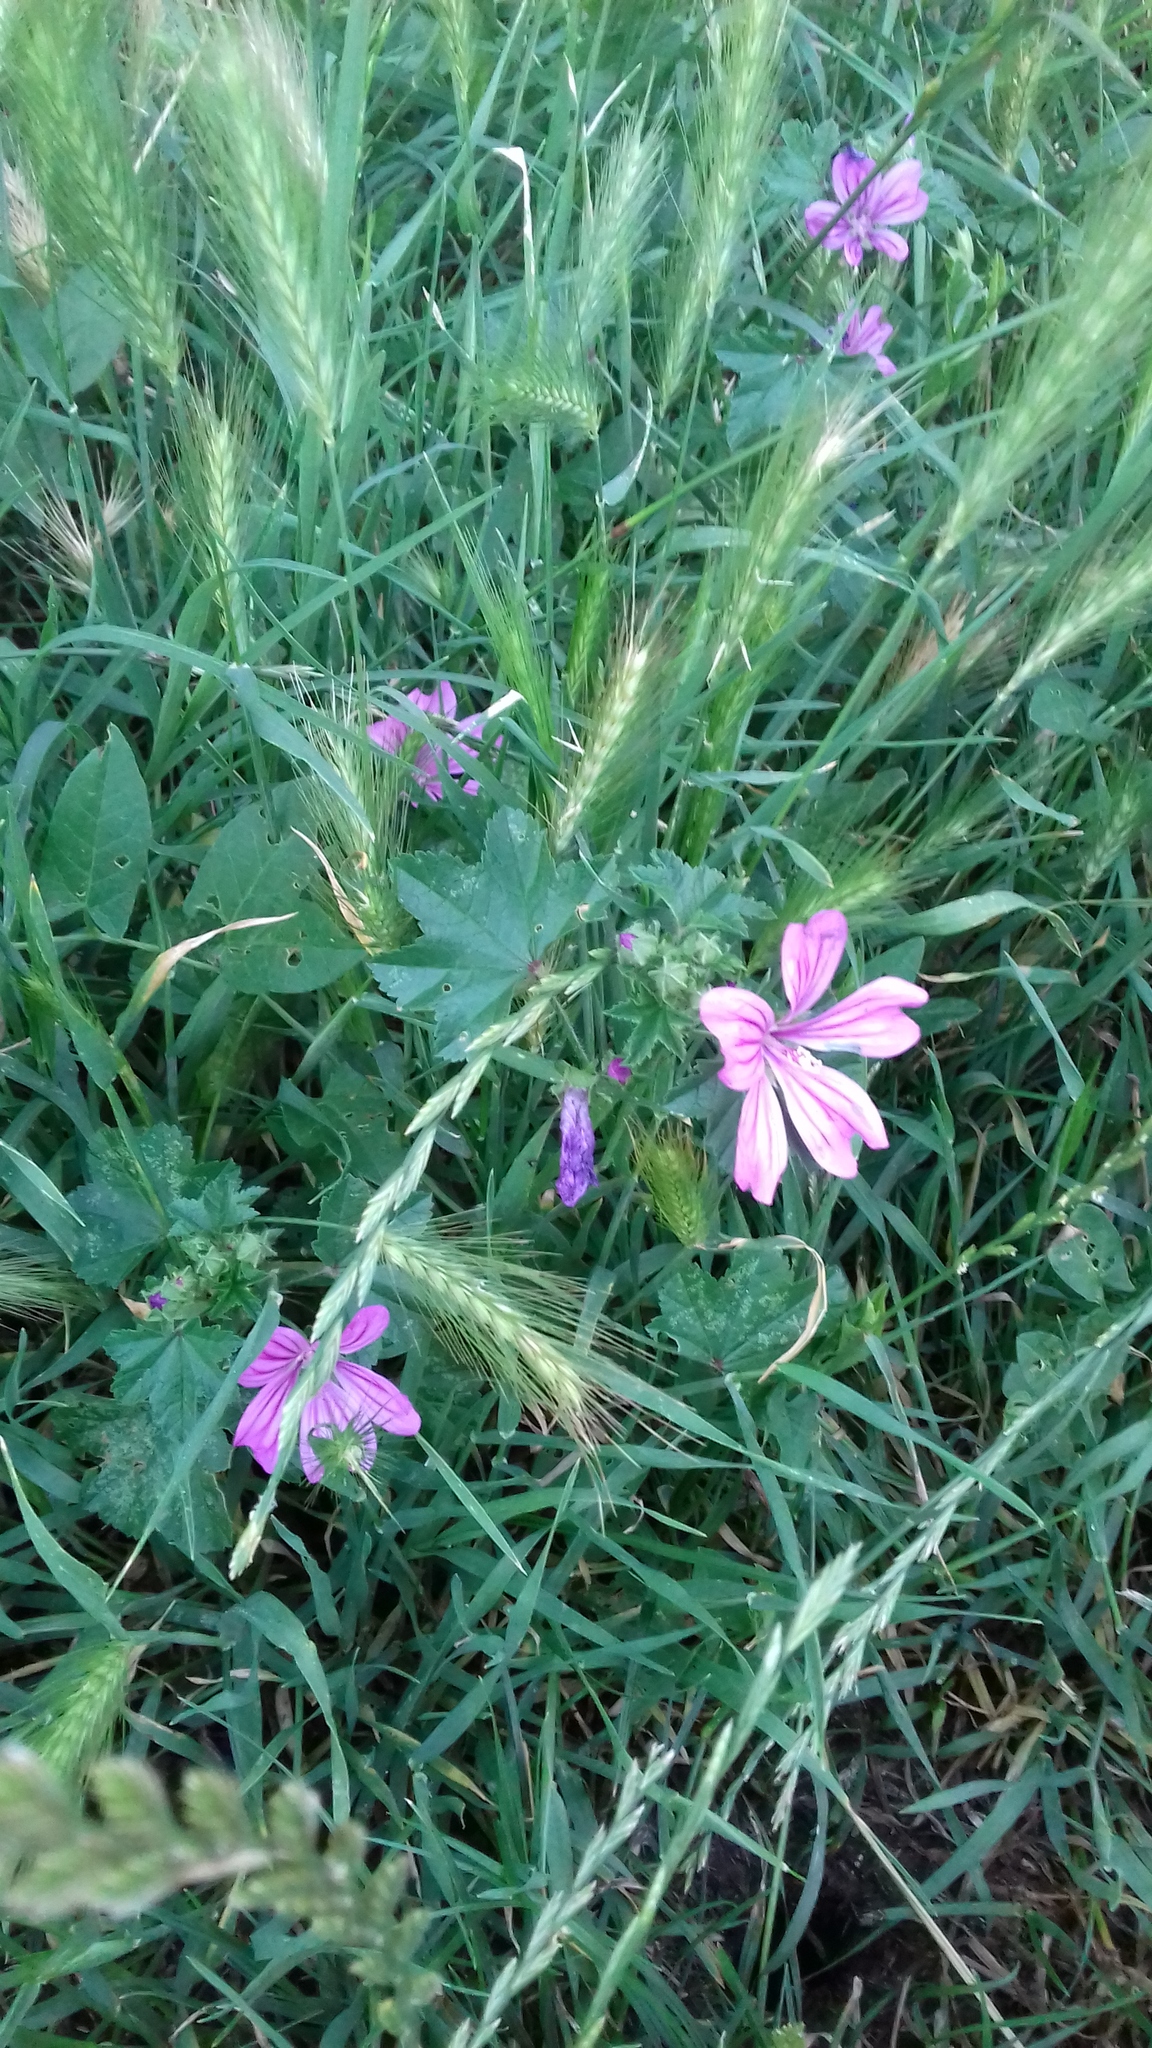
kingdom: Plantae
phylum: Tracheophyta
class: Magnoliopsida
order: Malvales
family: Malvaceae
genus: Malva
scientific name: Malva sylvestris
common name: Common mallow
